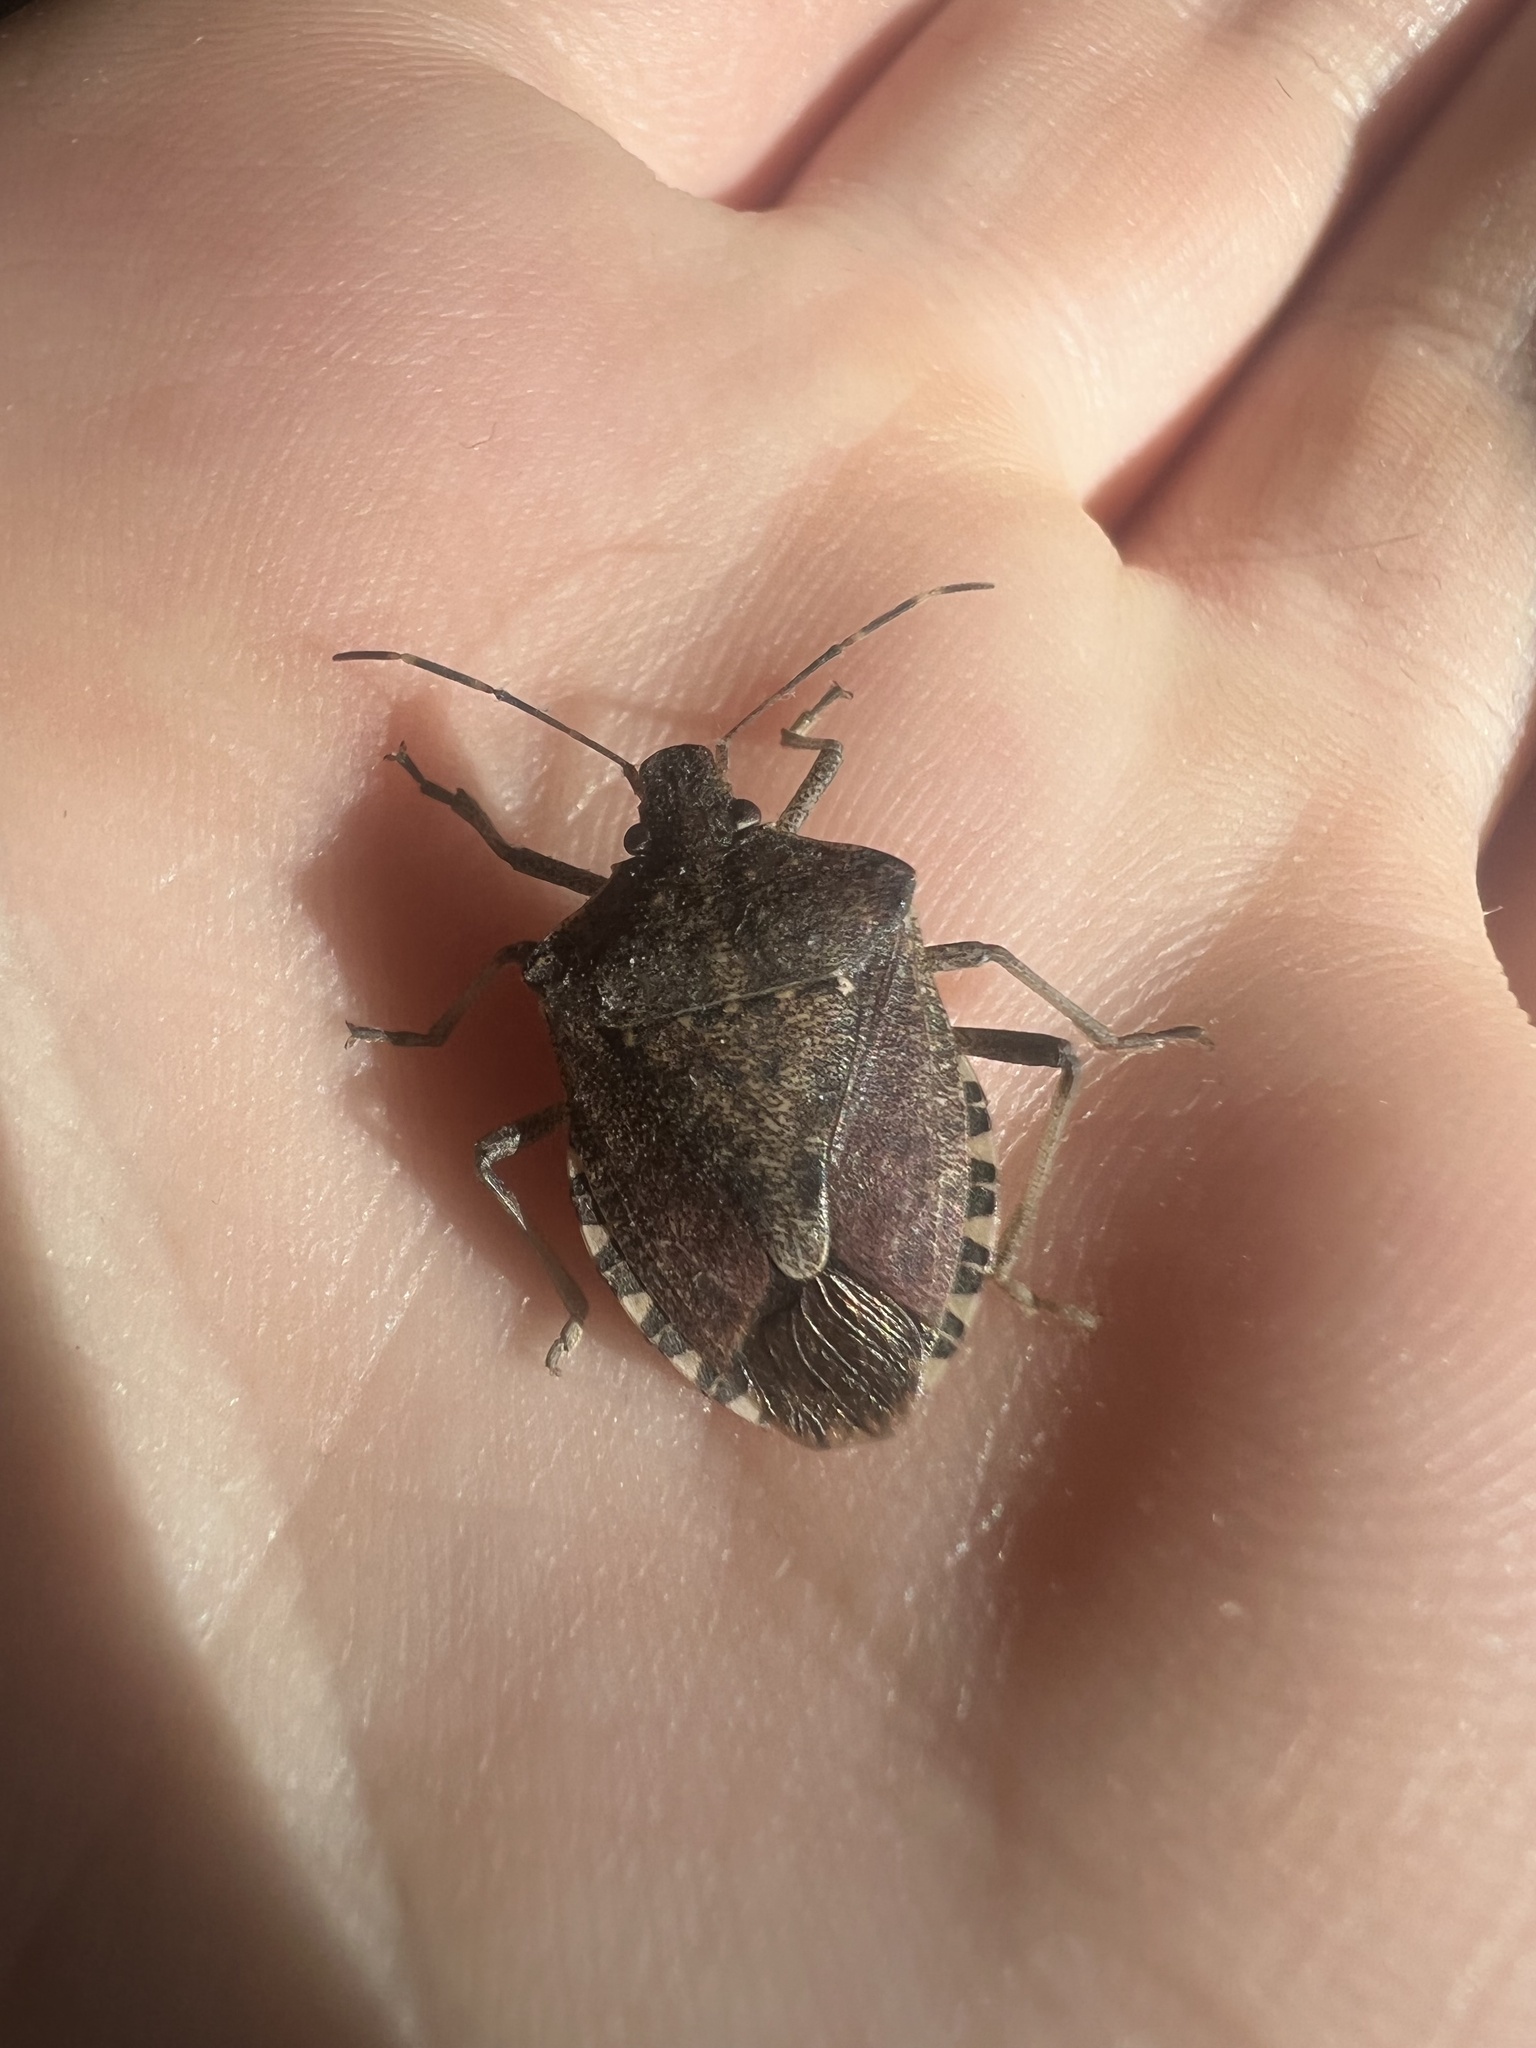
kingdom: Animalia
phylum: Arthropoda
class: Insecta
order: Hemiptera
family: Pentatomidae
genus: Halyomorpha
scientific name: Halyomorpha halys
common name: Brown marmorated stink bug
